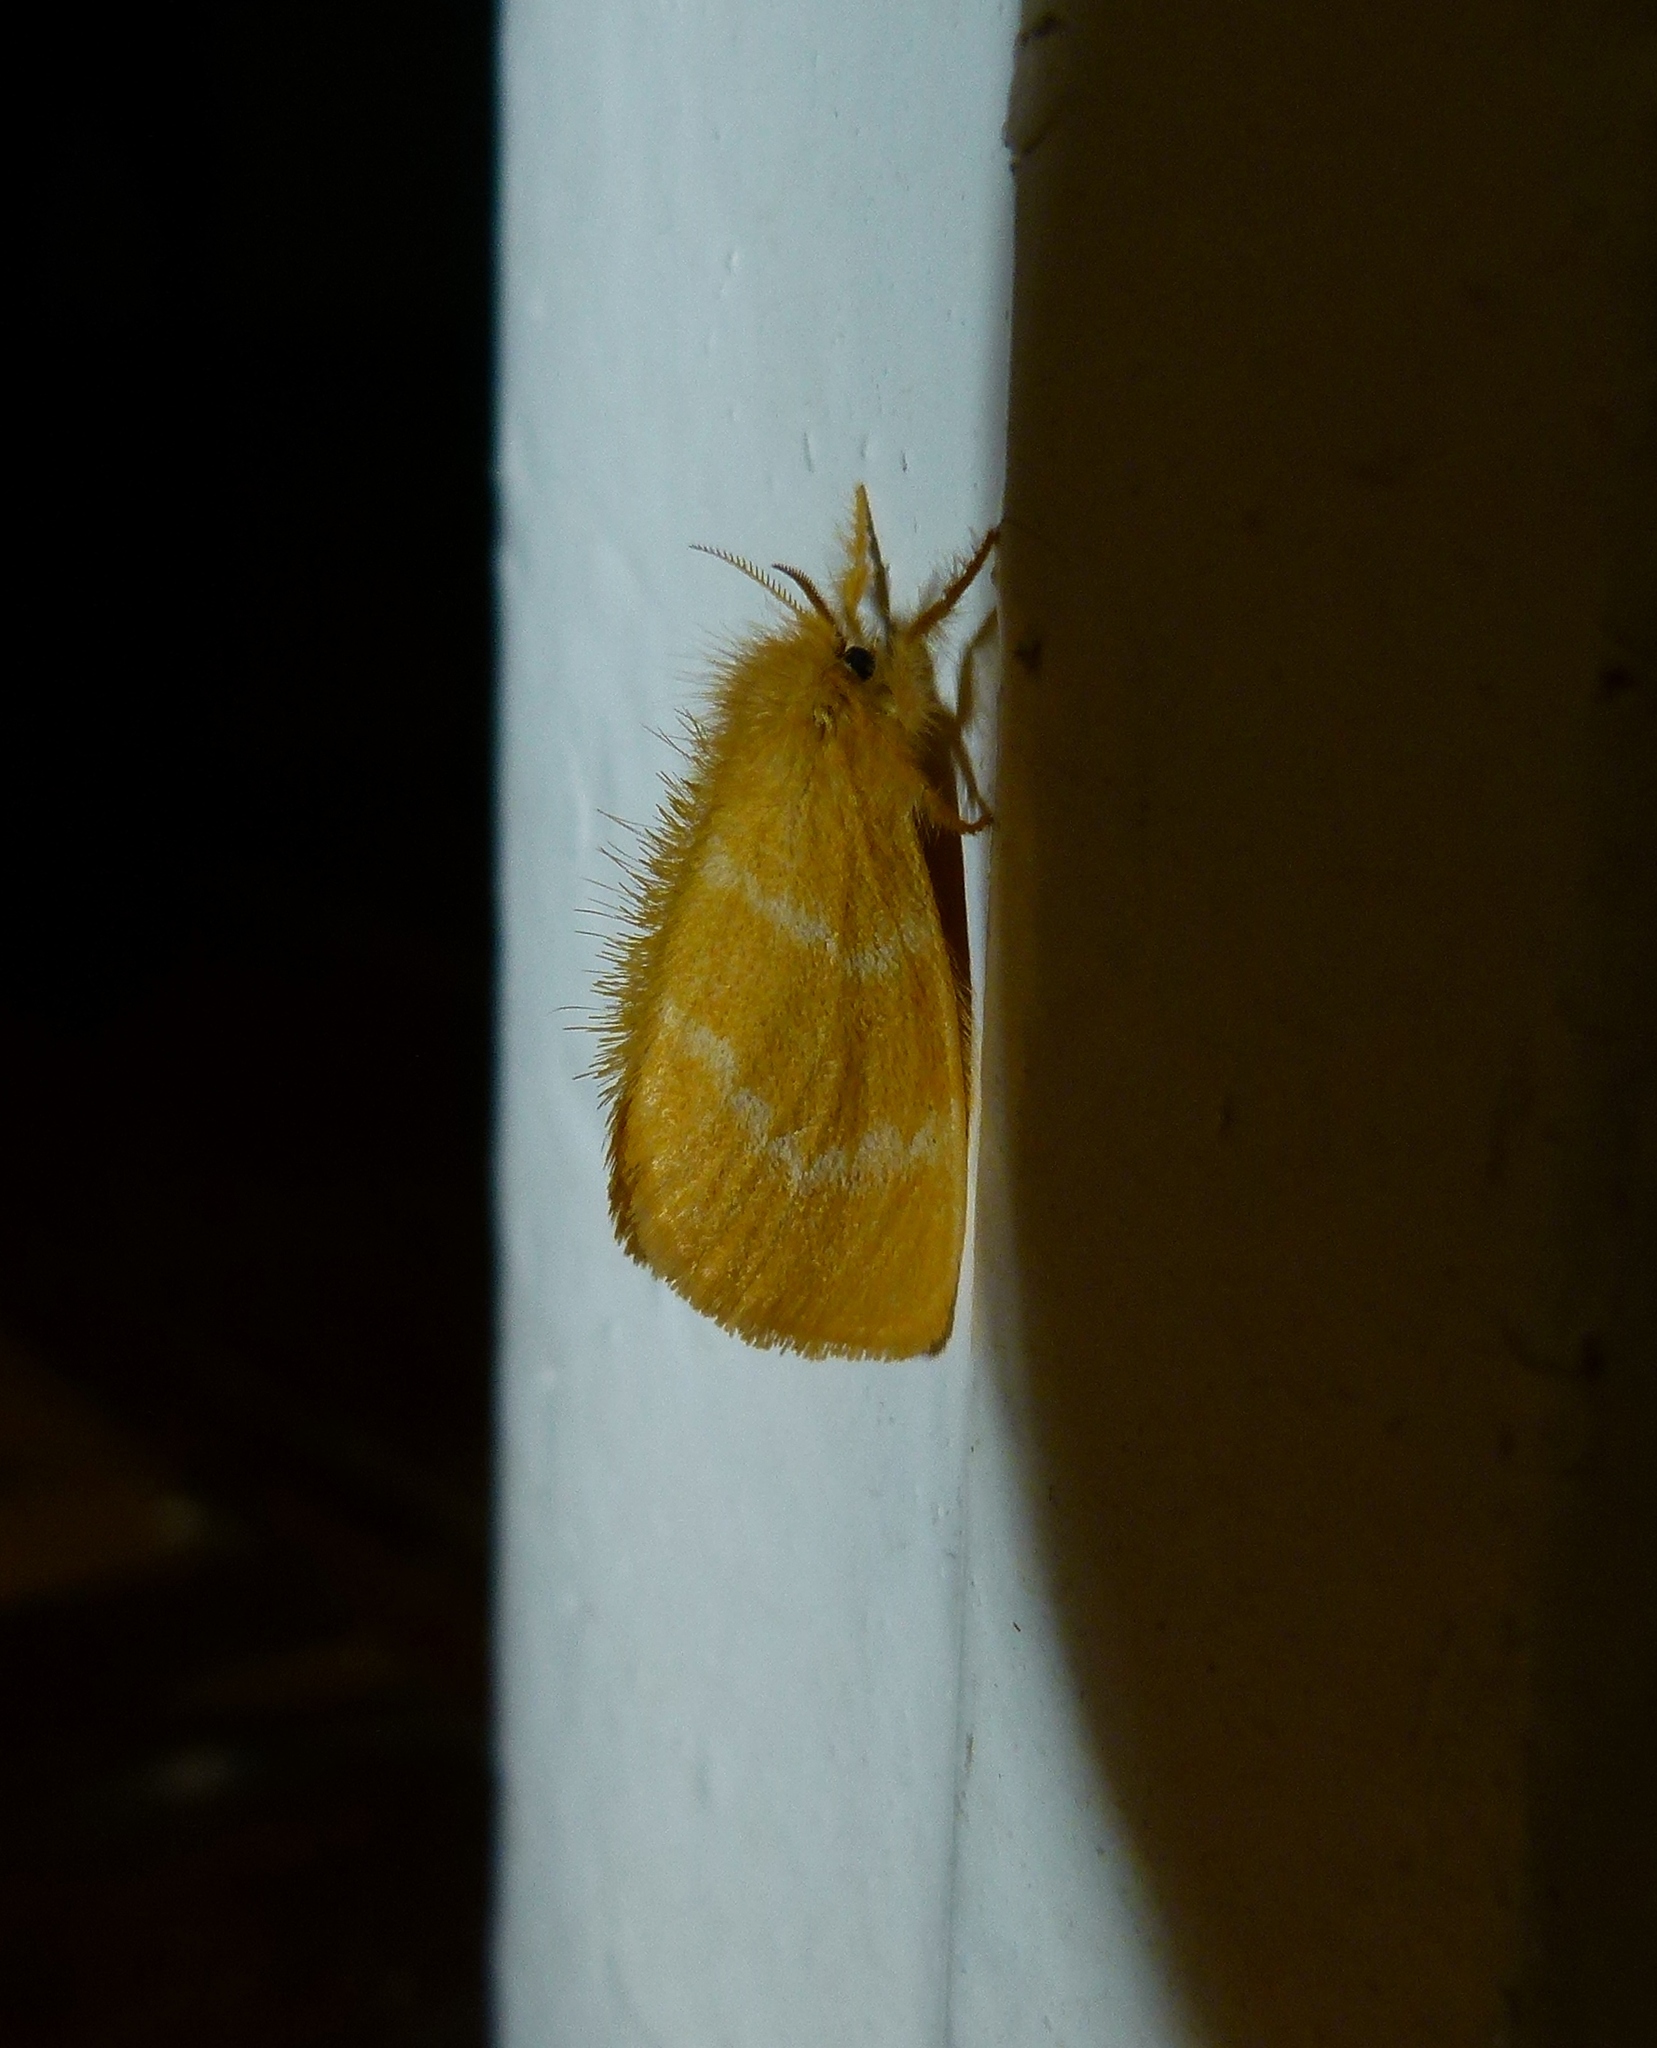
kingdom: Animalia
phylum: Arthropoda
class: Insecta
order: Lepidoptera
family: Erebidae
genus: Euproctis
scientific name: Euproctis lutea
